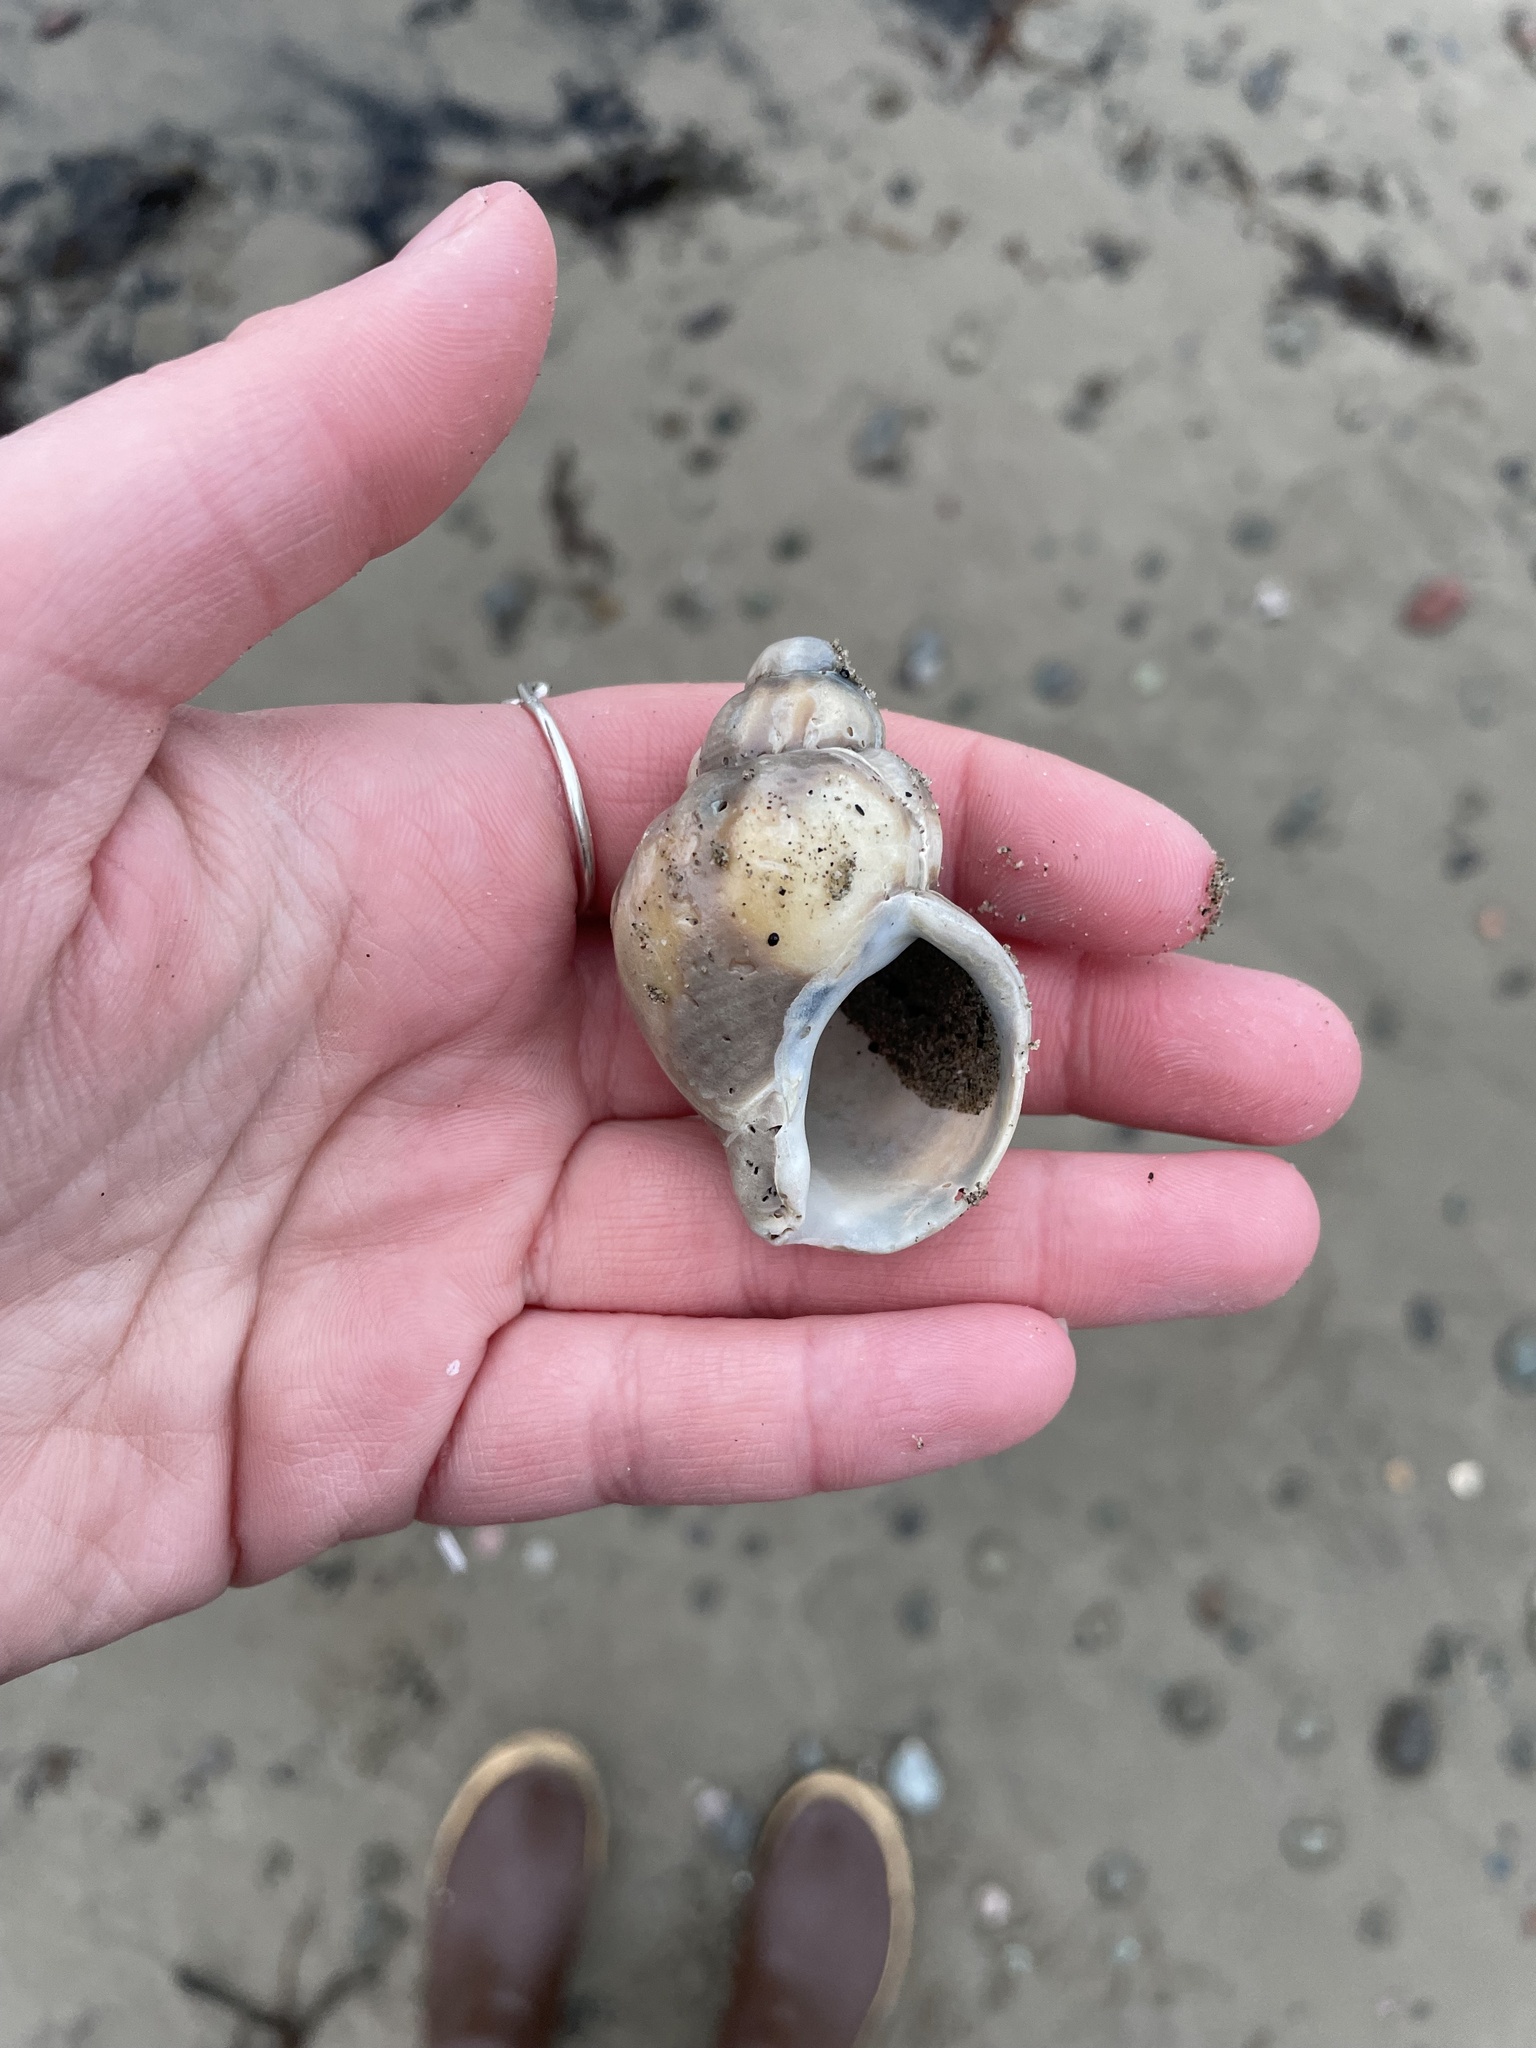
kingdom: Animalia
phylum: Mollusca
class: Gastropoda
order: Neogastropoda
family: Buccinidae
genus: Buccinum
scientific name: Buccinum undatum
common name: Common whelk
